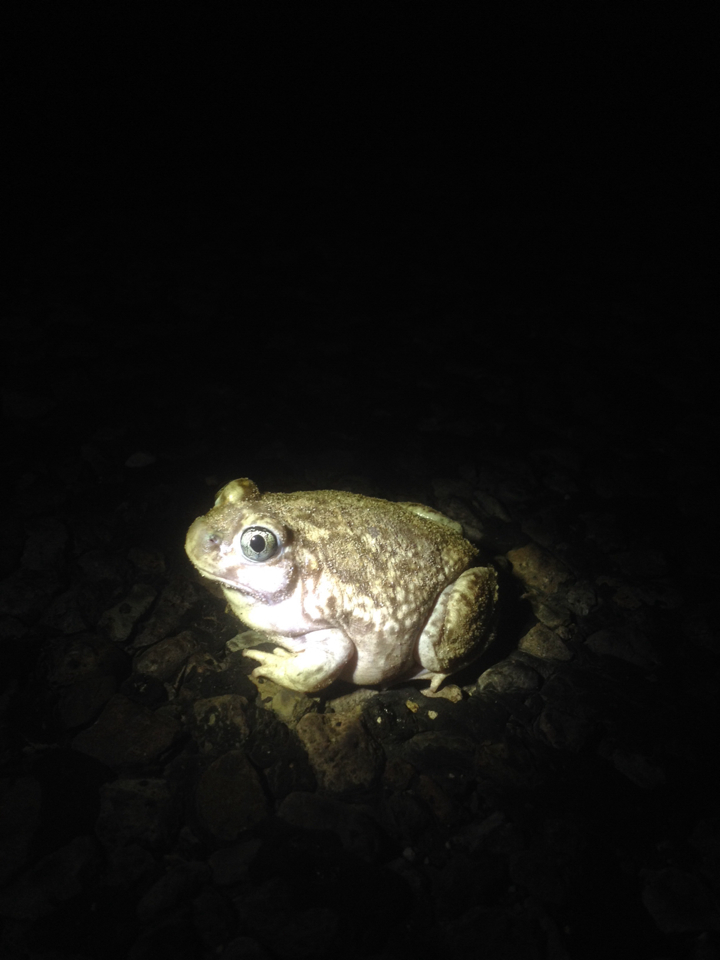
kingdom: Animalia
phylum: Chordata
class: Amphibia
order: Anura
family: Scaphiopodidae
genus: Spea
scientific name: Spea bombifrons
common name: Plains spadefoot
